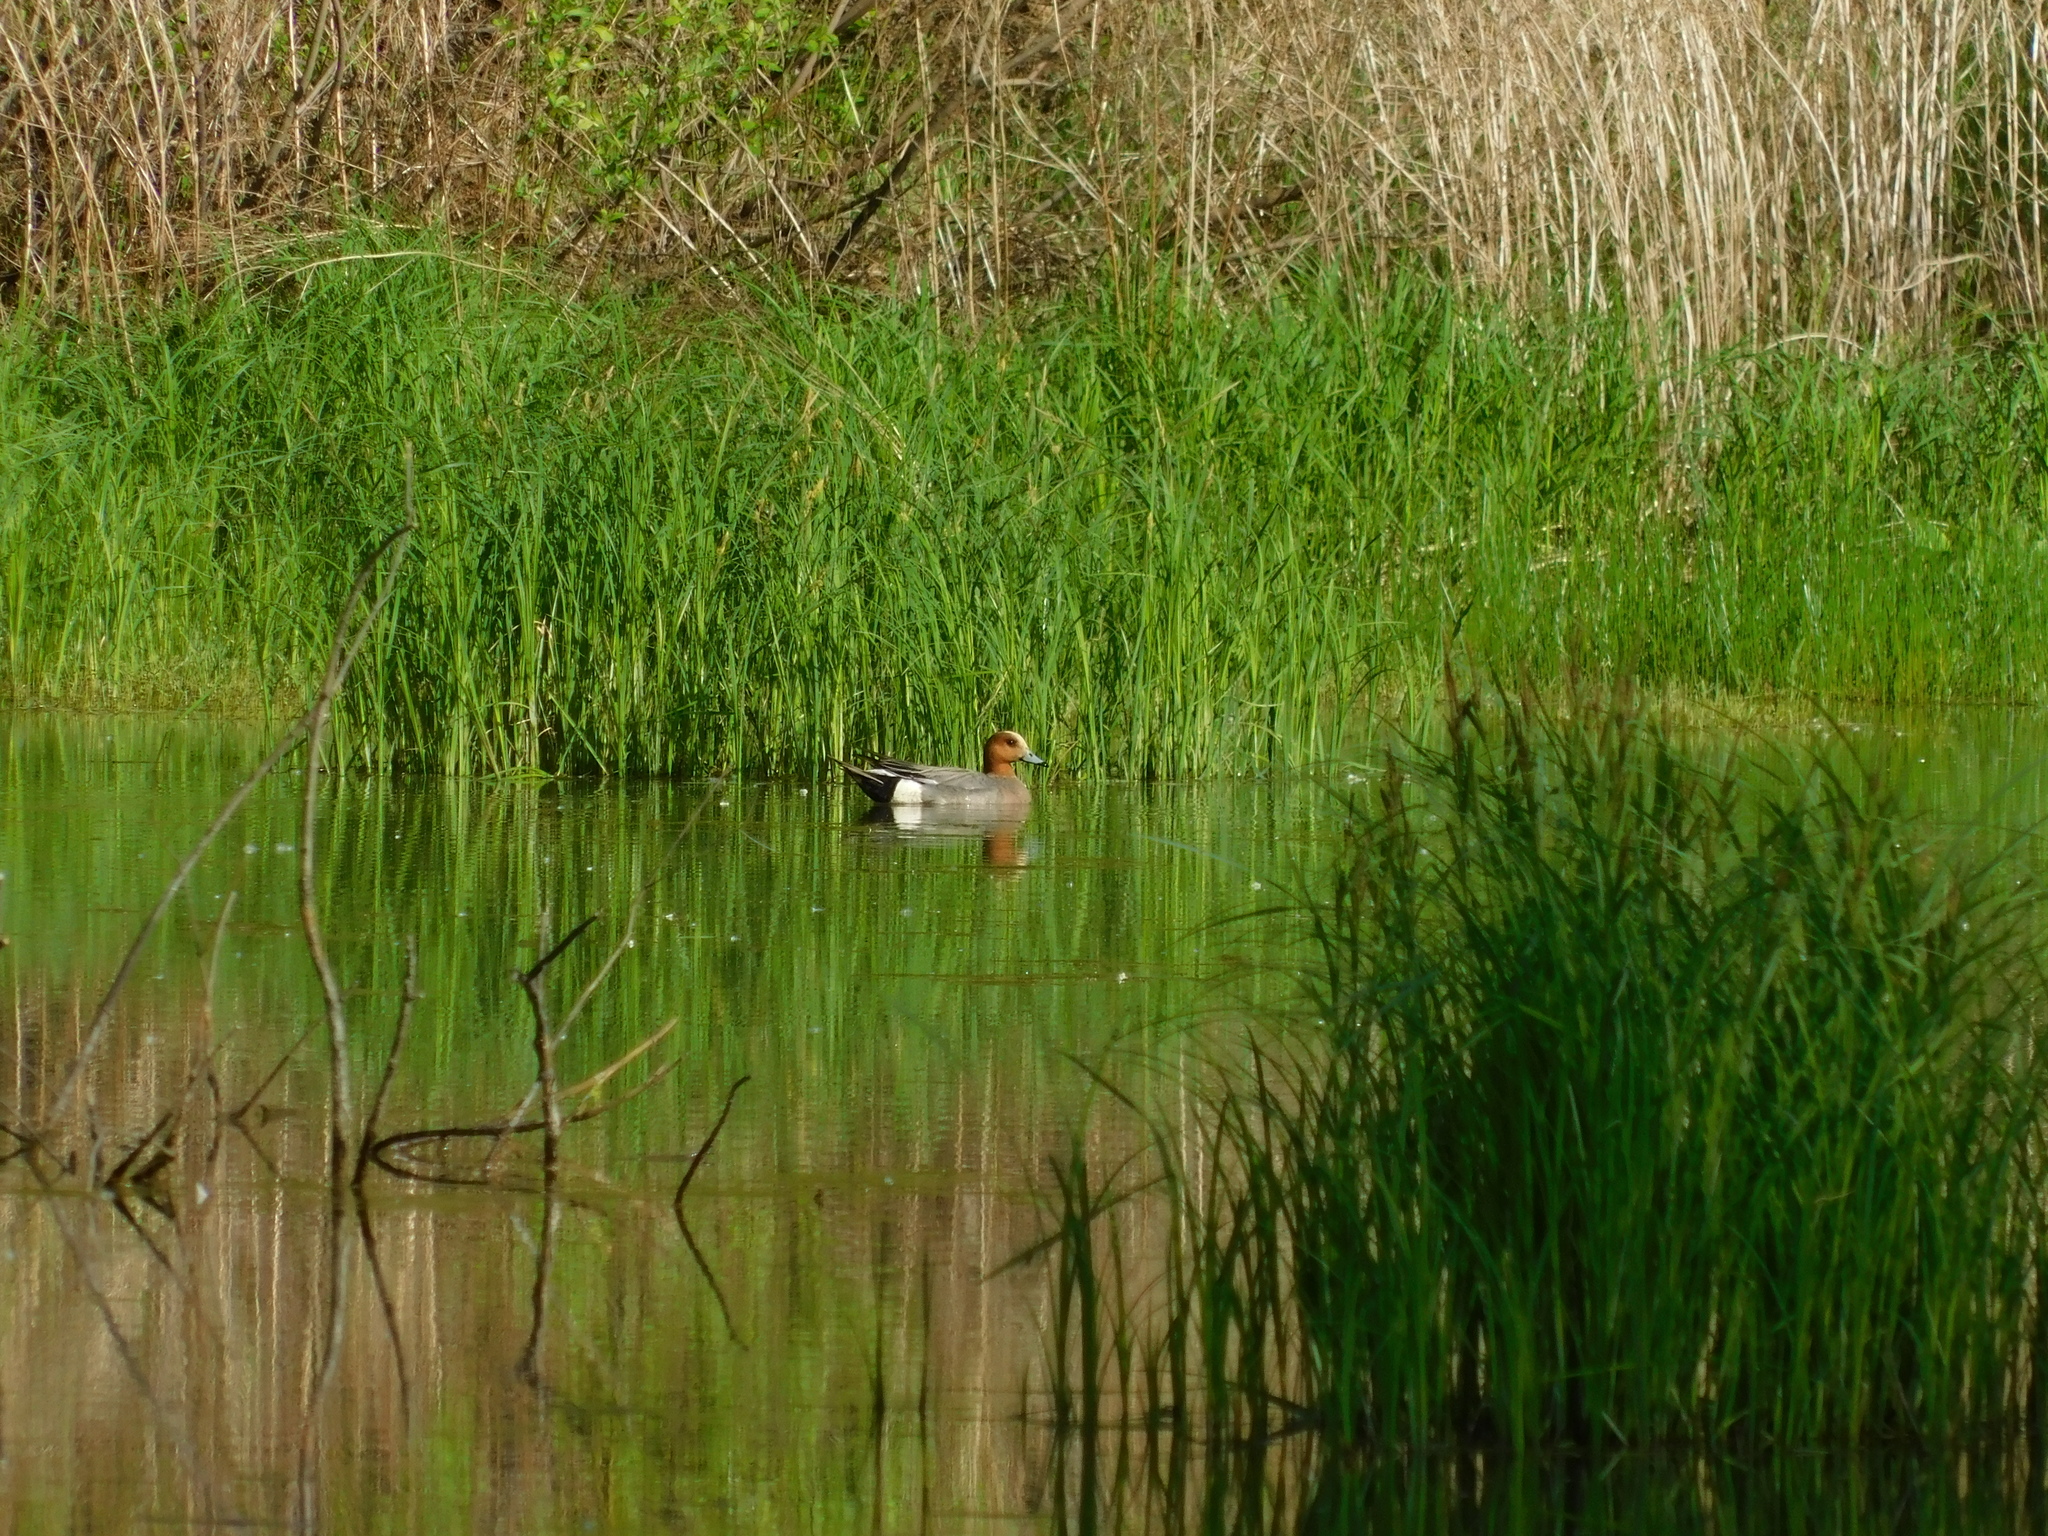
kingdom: Animalia
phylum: Chordata
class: Aves
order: Anseriformes
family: Anatidae
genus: Mareca
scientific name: Mareca penelope
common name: Eurasian wigeon
